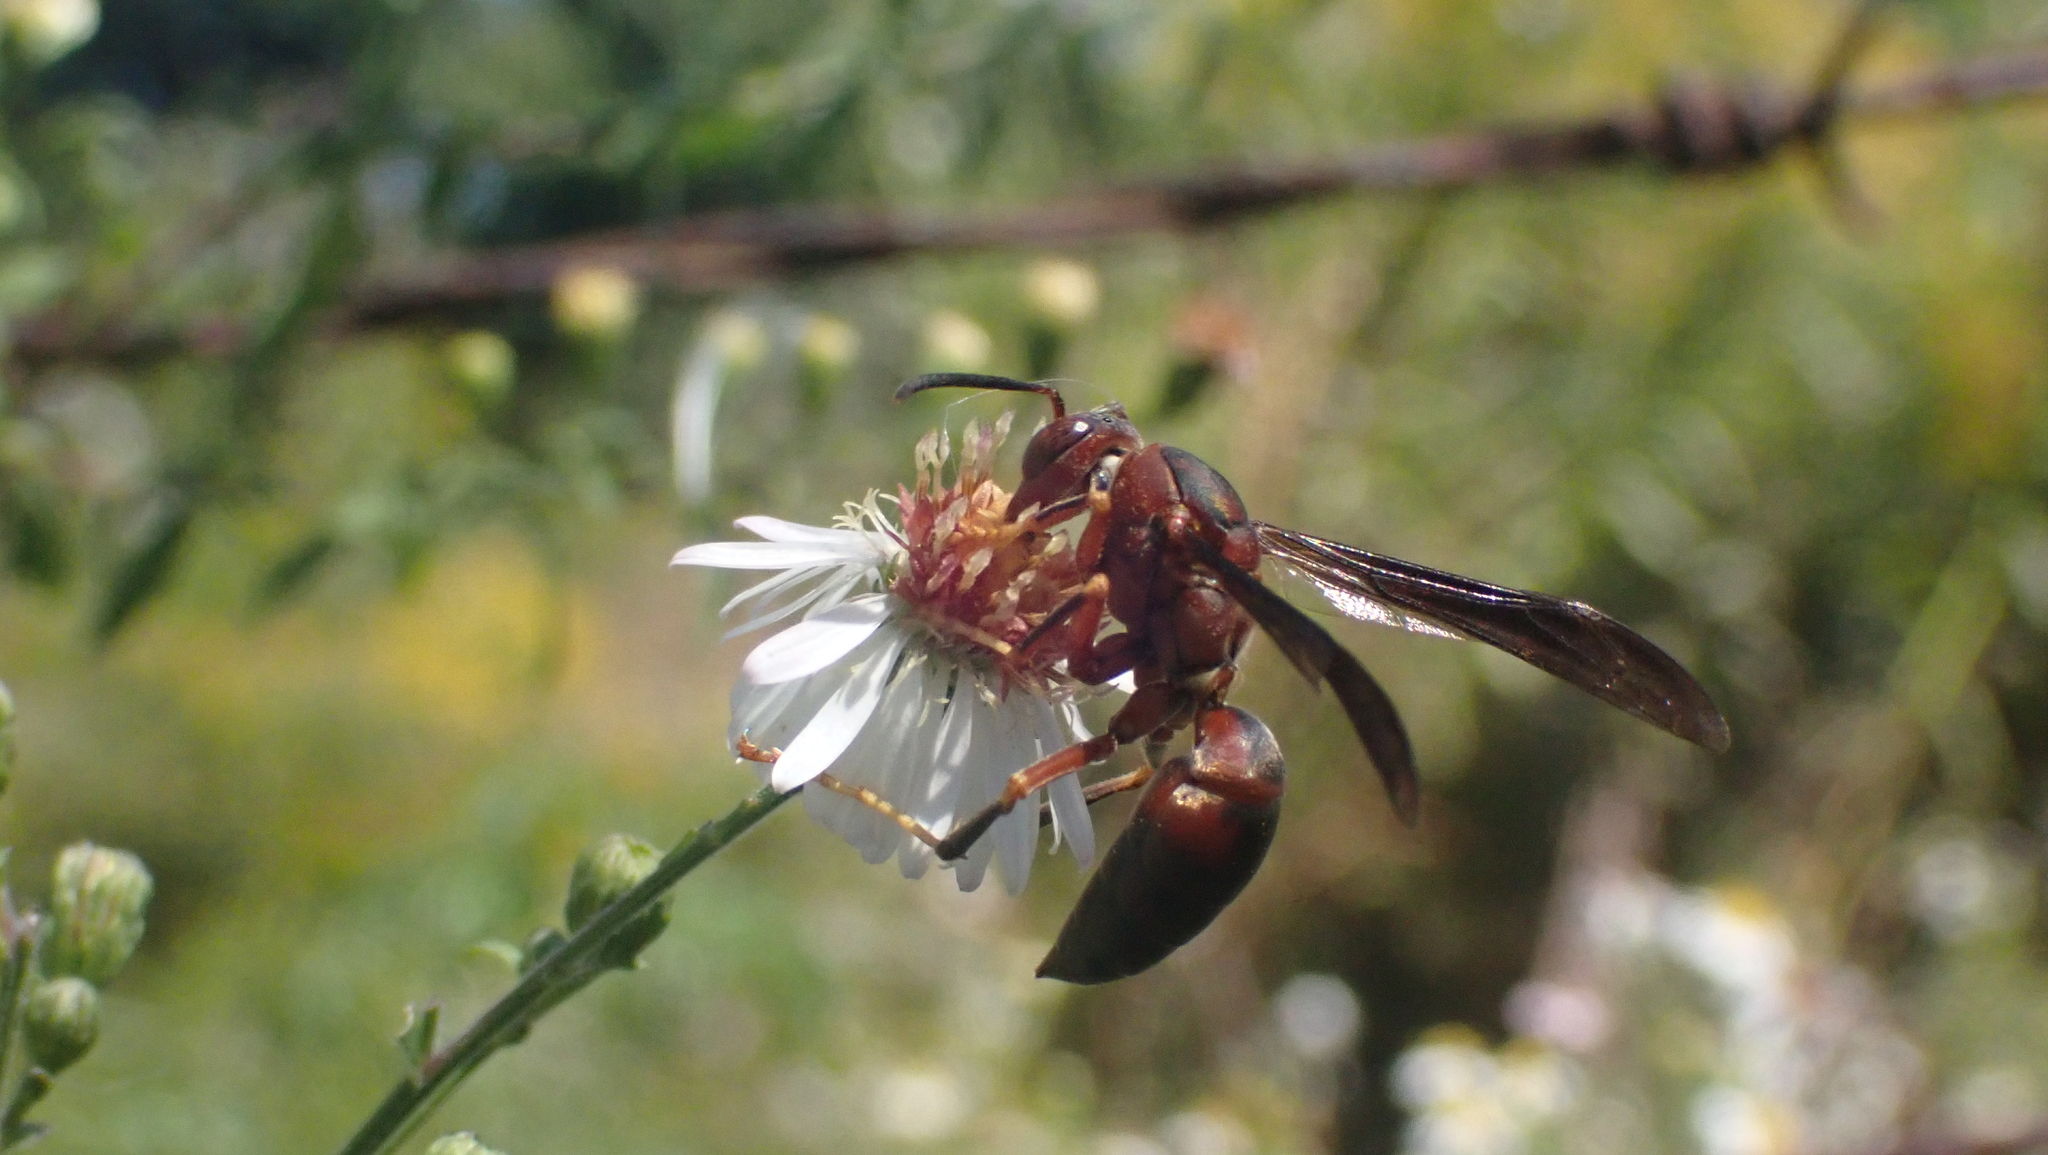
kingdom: Animalia
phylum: Arthropoda
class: Insecta
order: Hymenoptera
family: Eumenidae
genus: Polistes
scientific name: Polistes metricus
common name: Metric paper wasp
